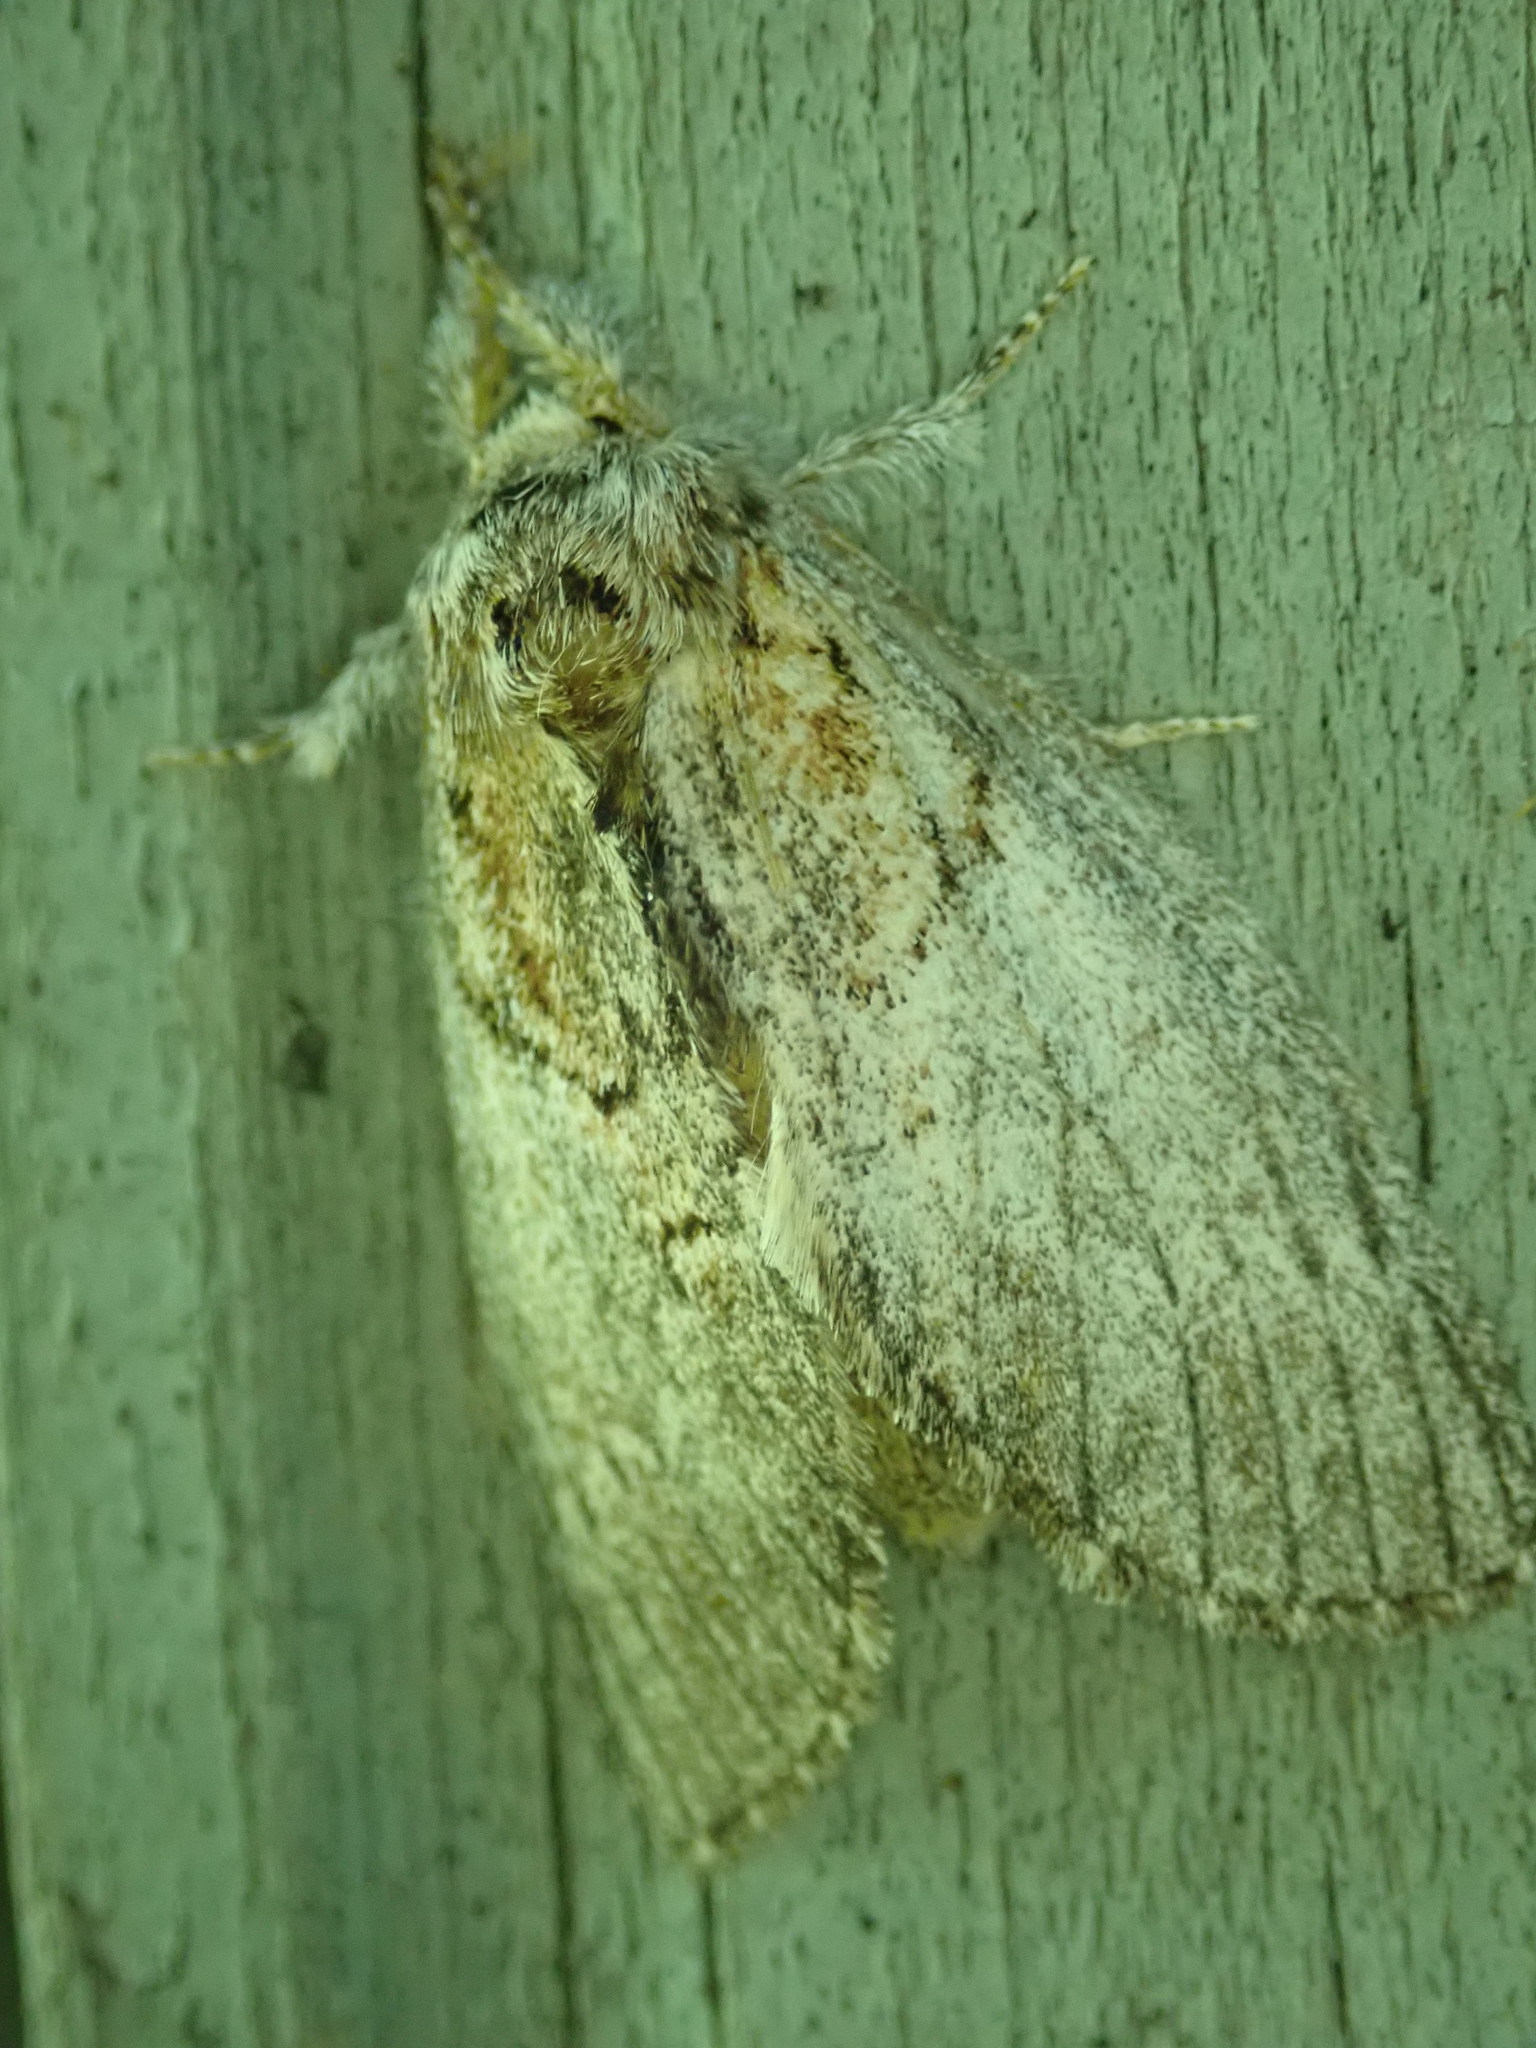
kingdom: Animalia
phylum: Arthropoda
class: Insecta
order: Lepidoptera
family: Notodontidae
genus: Peridea
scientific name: Peridea basitriens
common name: Oval-based prominent
